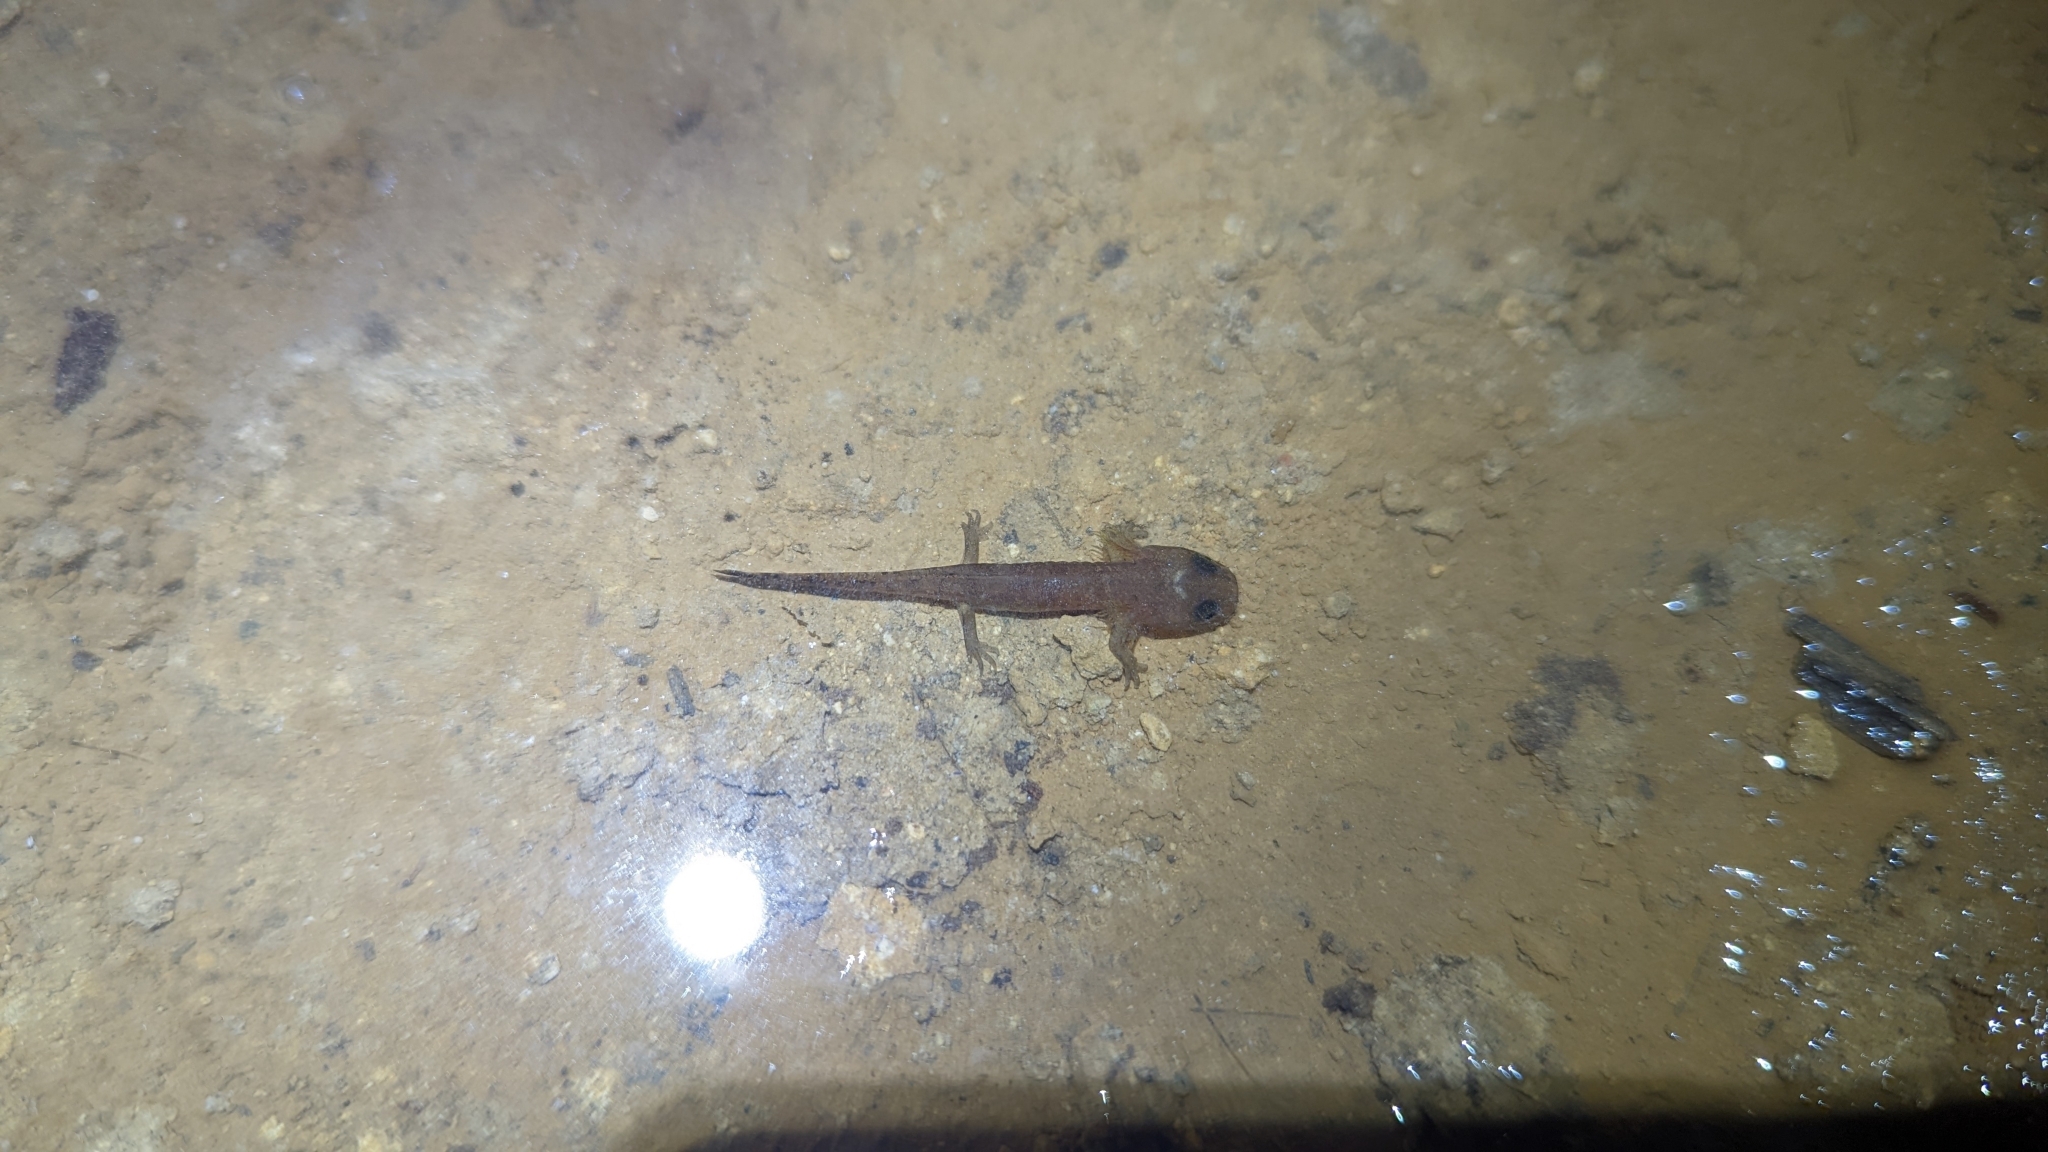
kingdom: Animalia
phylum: Chordata
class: Amphibia
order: Caudata
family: Salamandridae
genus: Salamandra
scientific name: Salamandra salamandra
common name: Fire salamander
